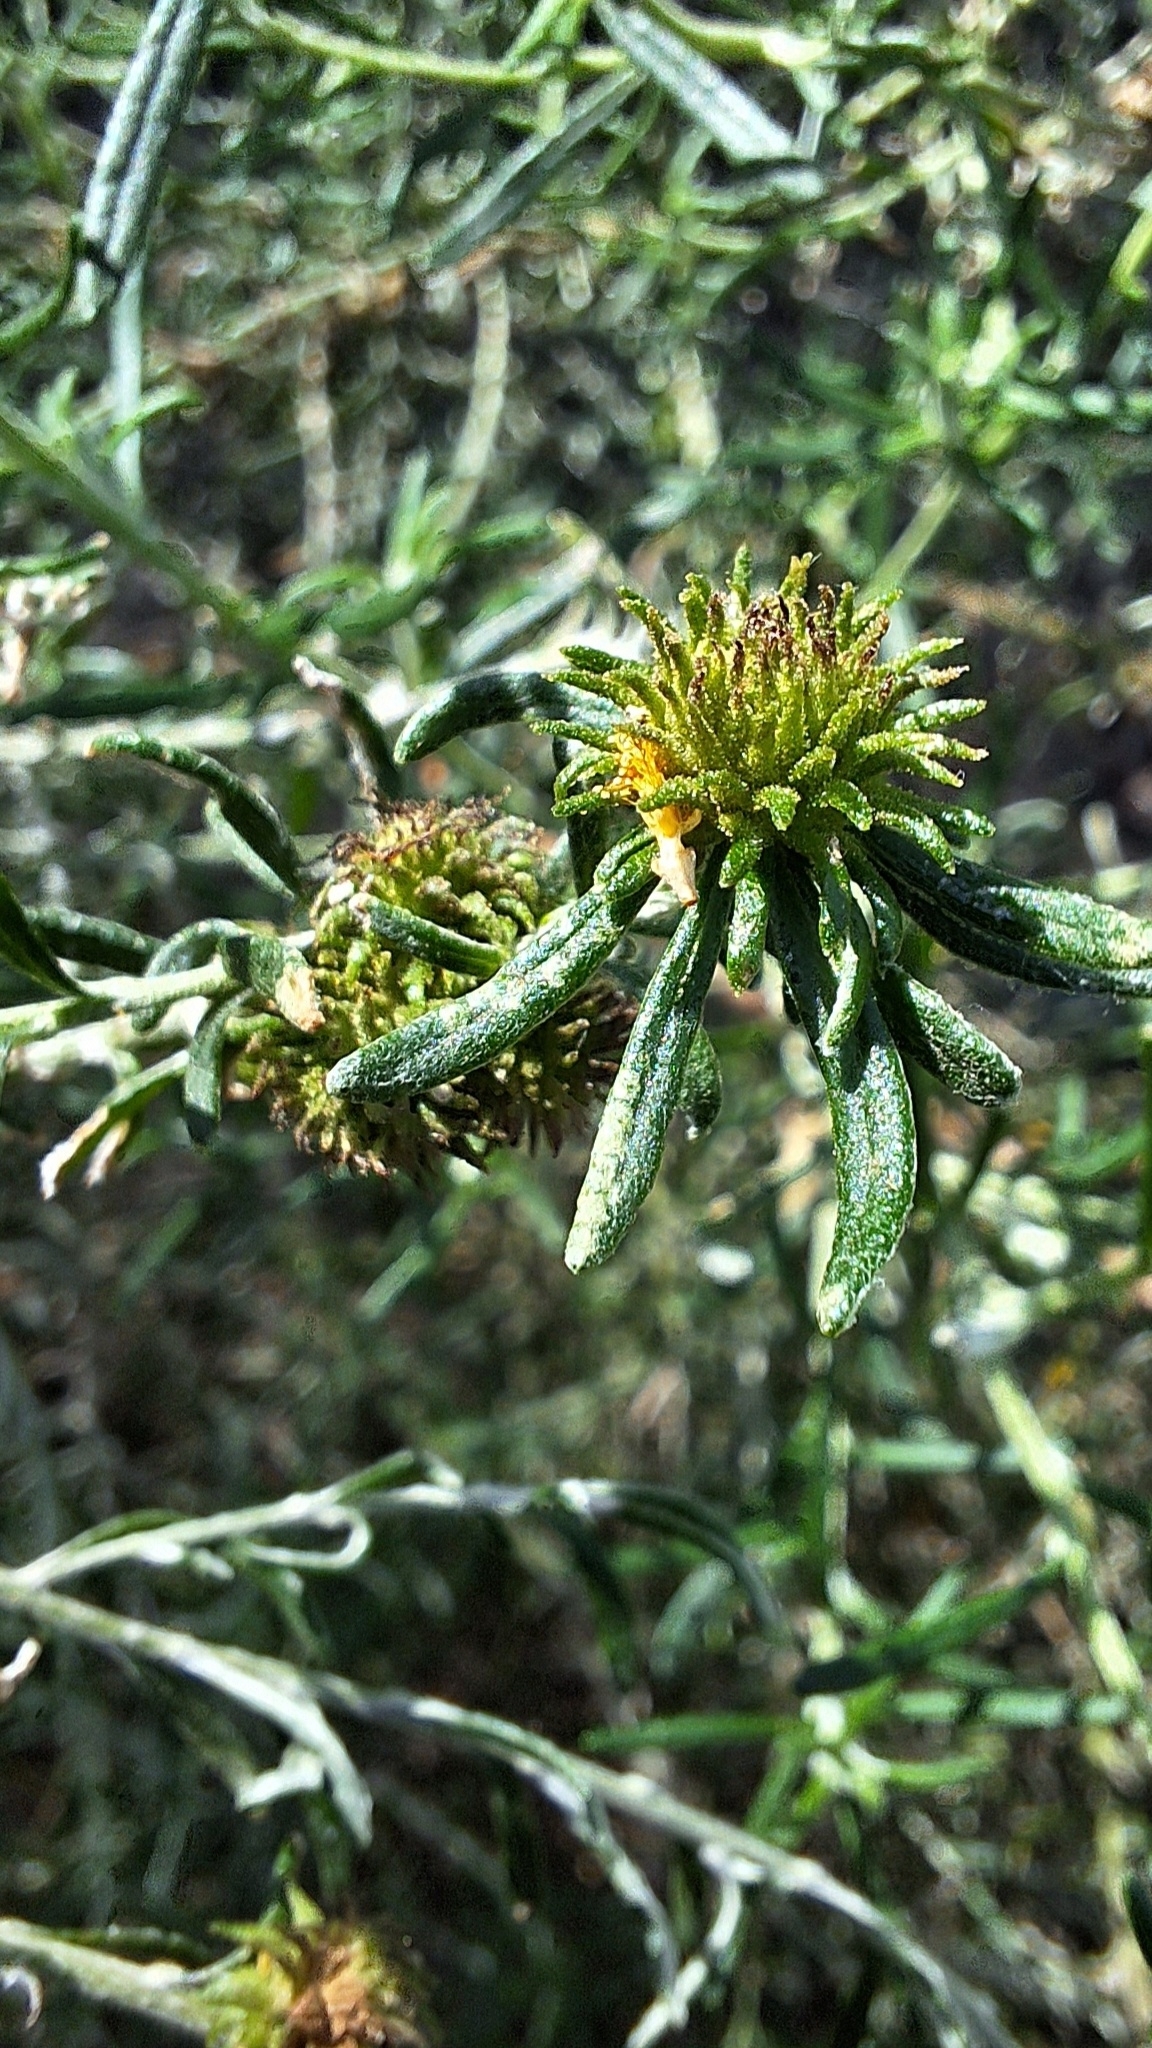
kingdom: Animalia
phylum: Arthropoda
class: Insecta
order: Diptera
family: Cecidomyiidae
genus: Trigonomyia
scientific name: Trigonomyia ananas
